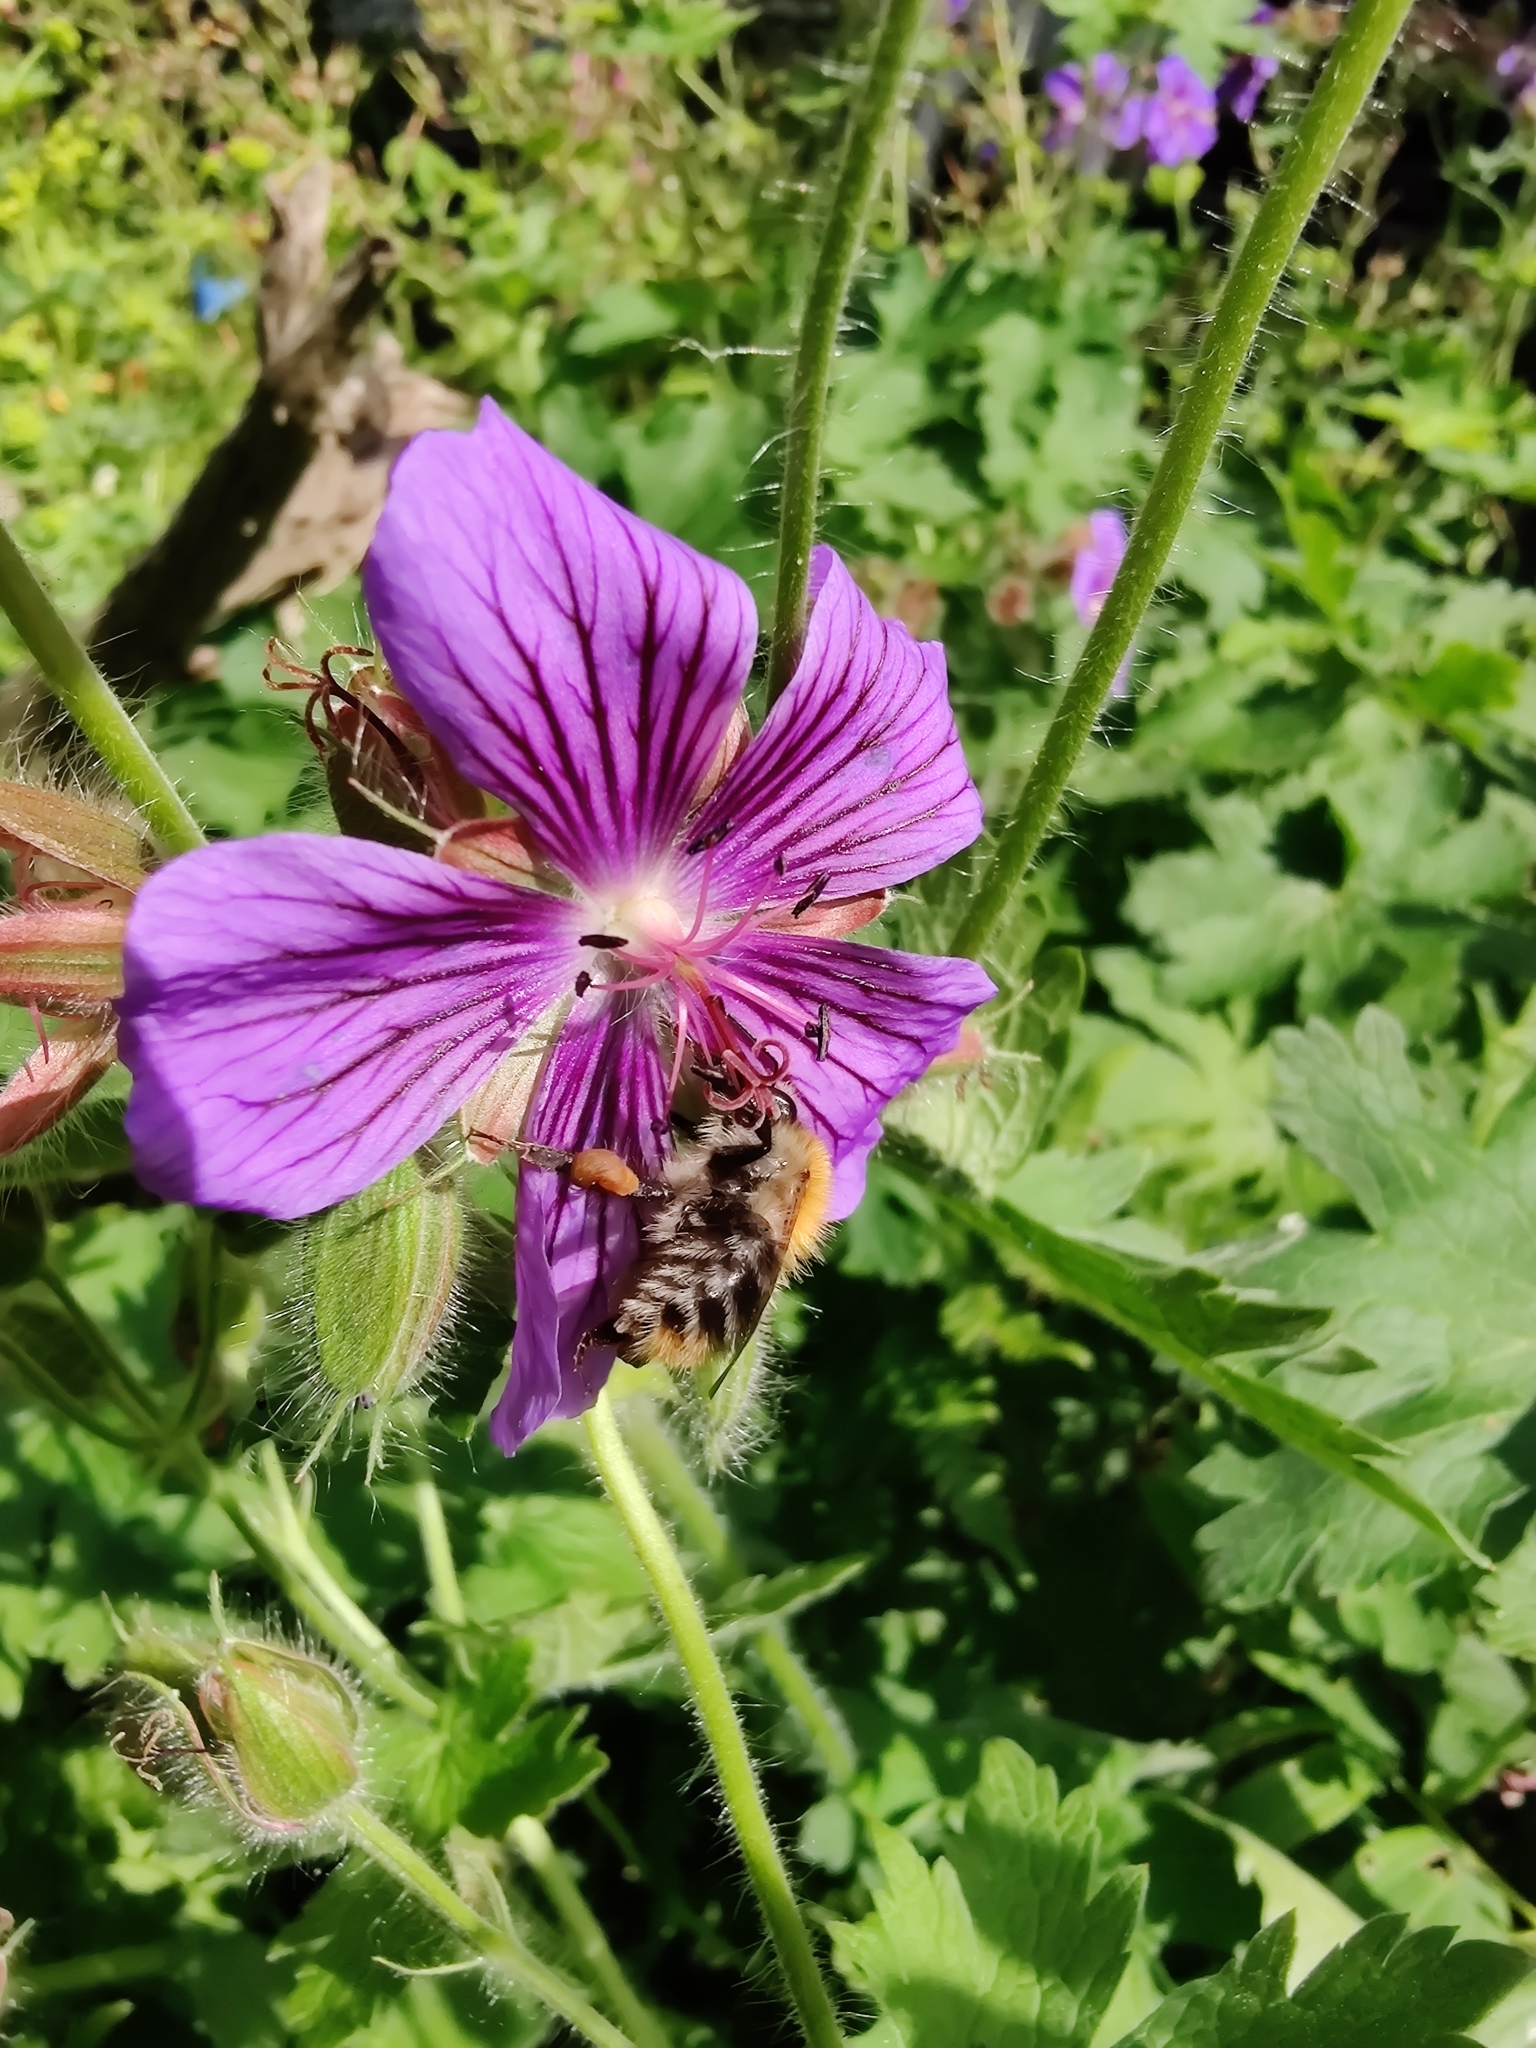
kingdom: Animalia
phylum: Arthropoda
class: Insecta
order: Hymenoptera
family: Apidae
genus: Bombus
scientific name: Bombus pascuorum
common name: Common carder bee
